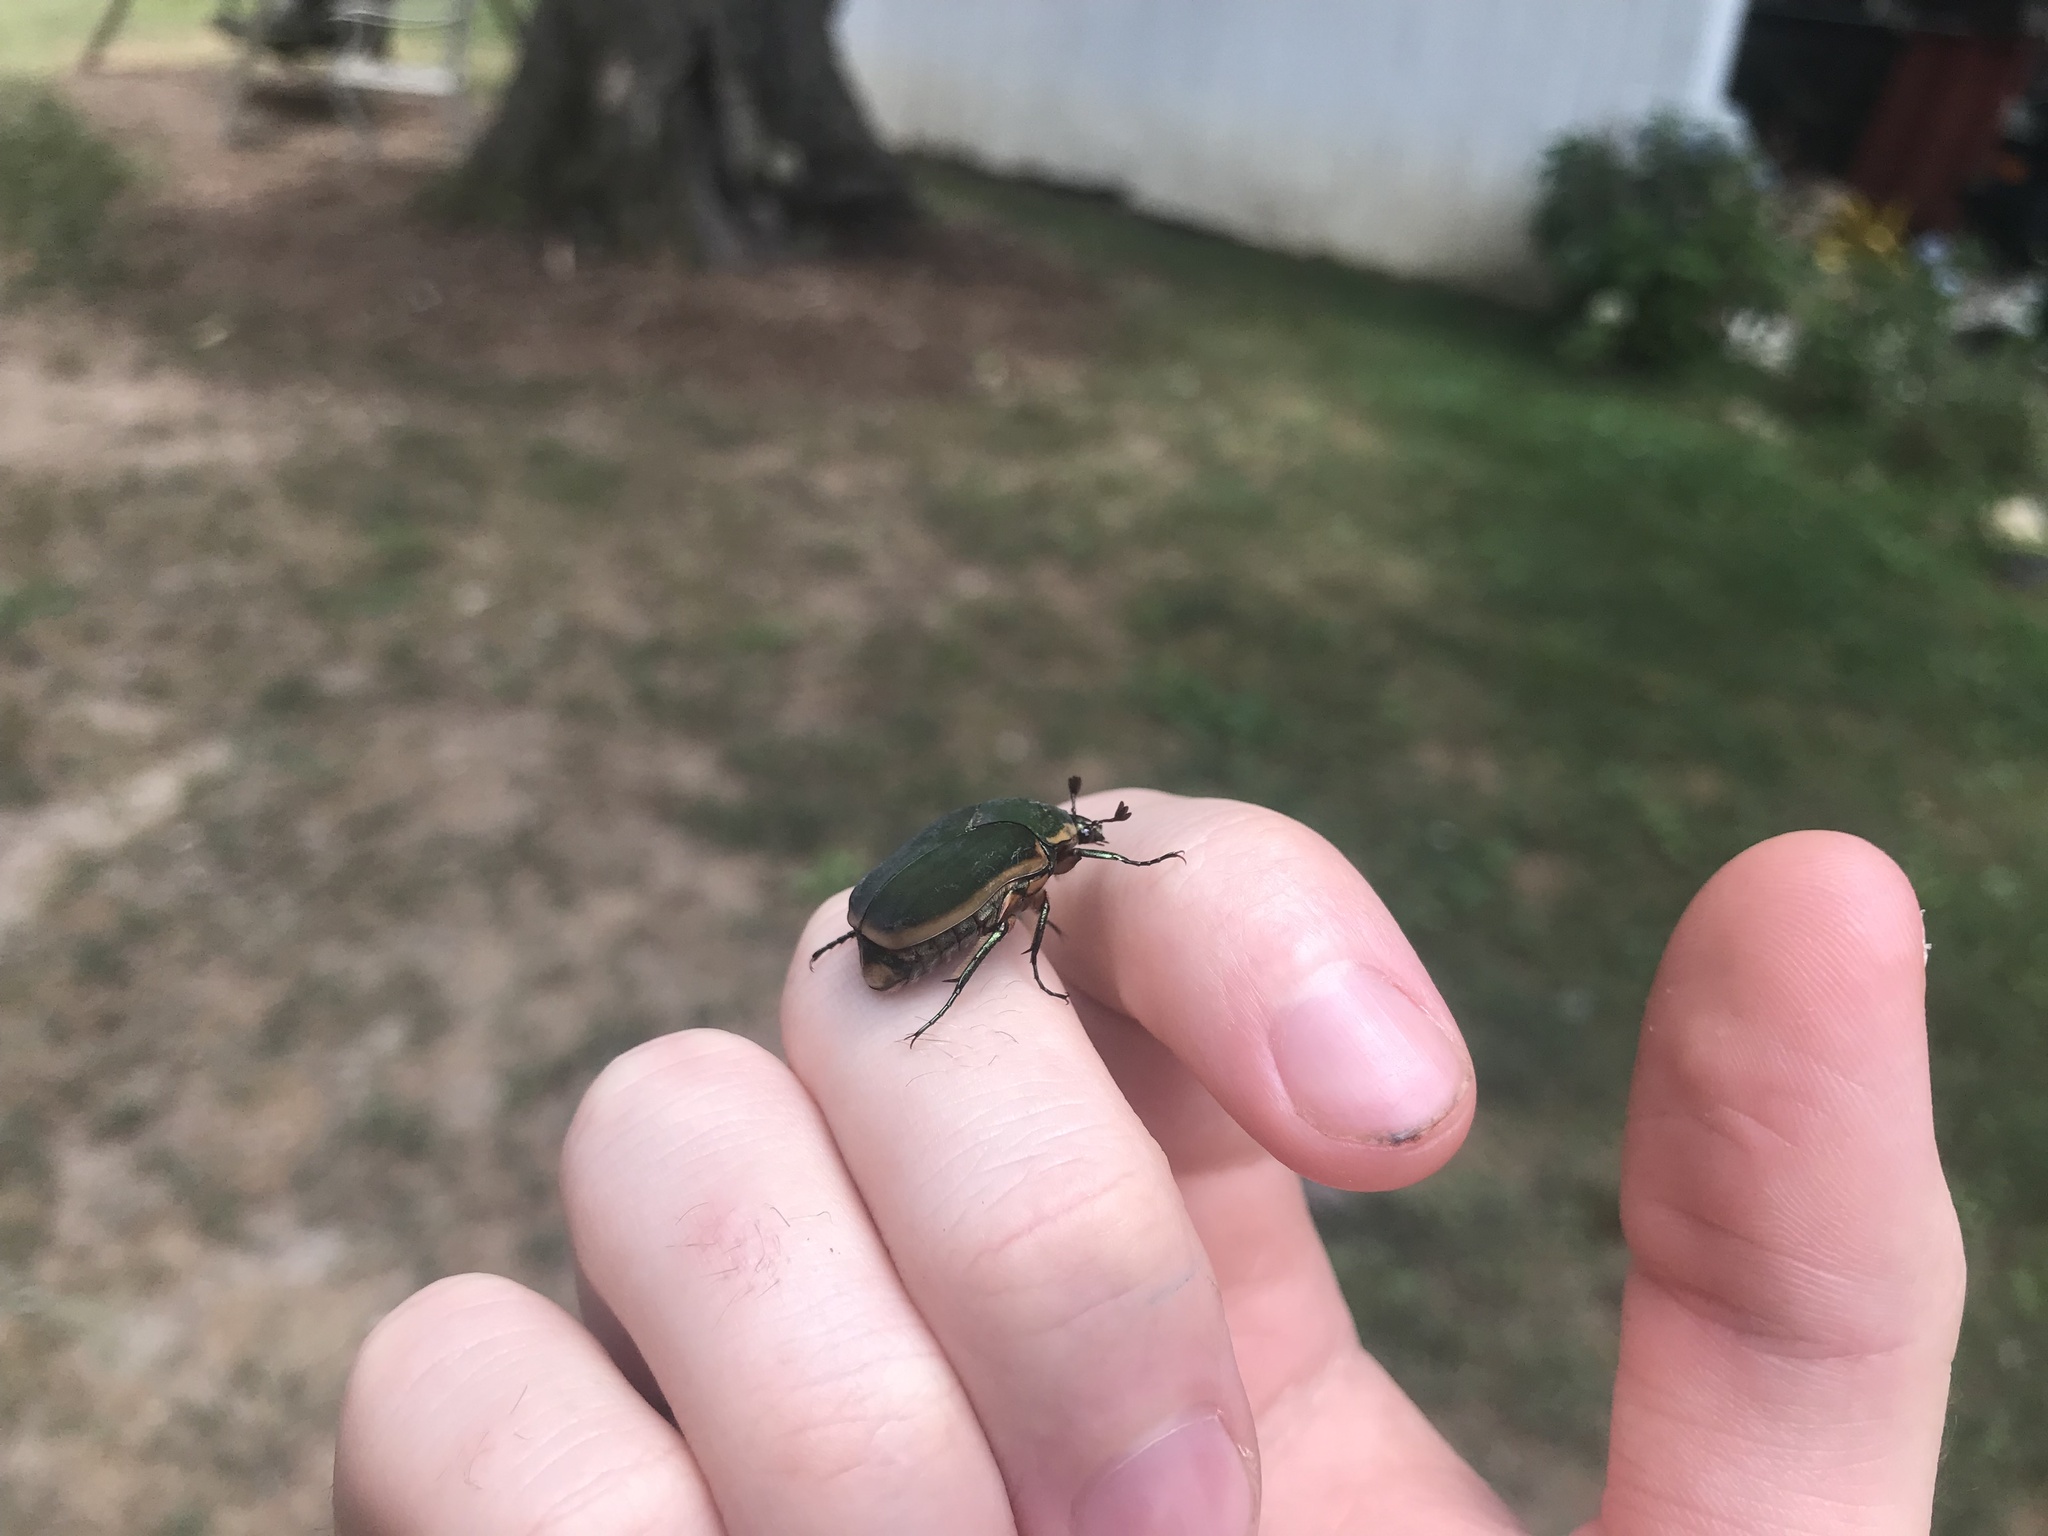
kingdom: Animalia
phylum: Arthropoda
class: Insecta
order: Coleoptera
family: Scarabaeidae
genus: Cotinis
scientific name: Cotinis nitida
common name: Common green june beetle
